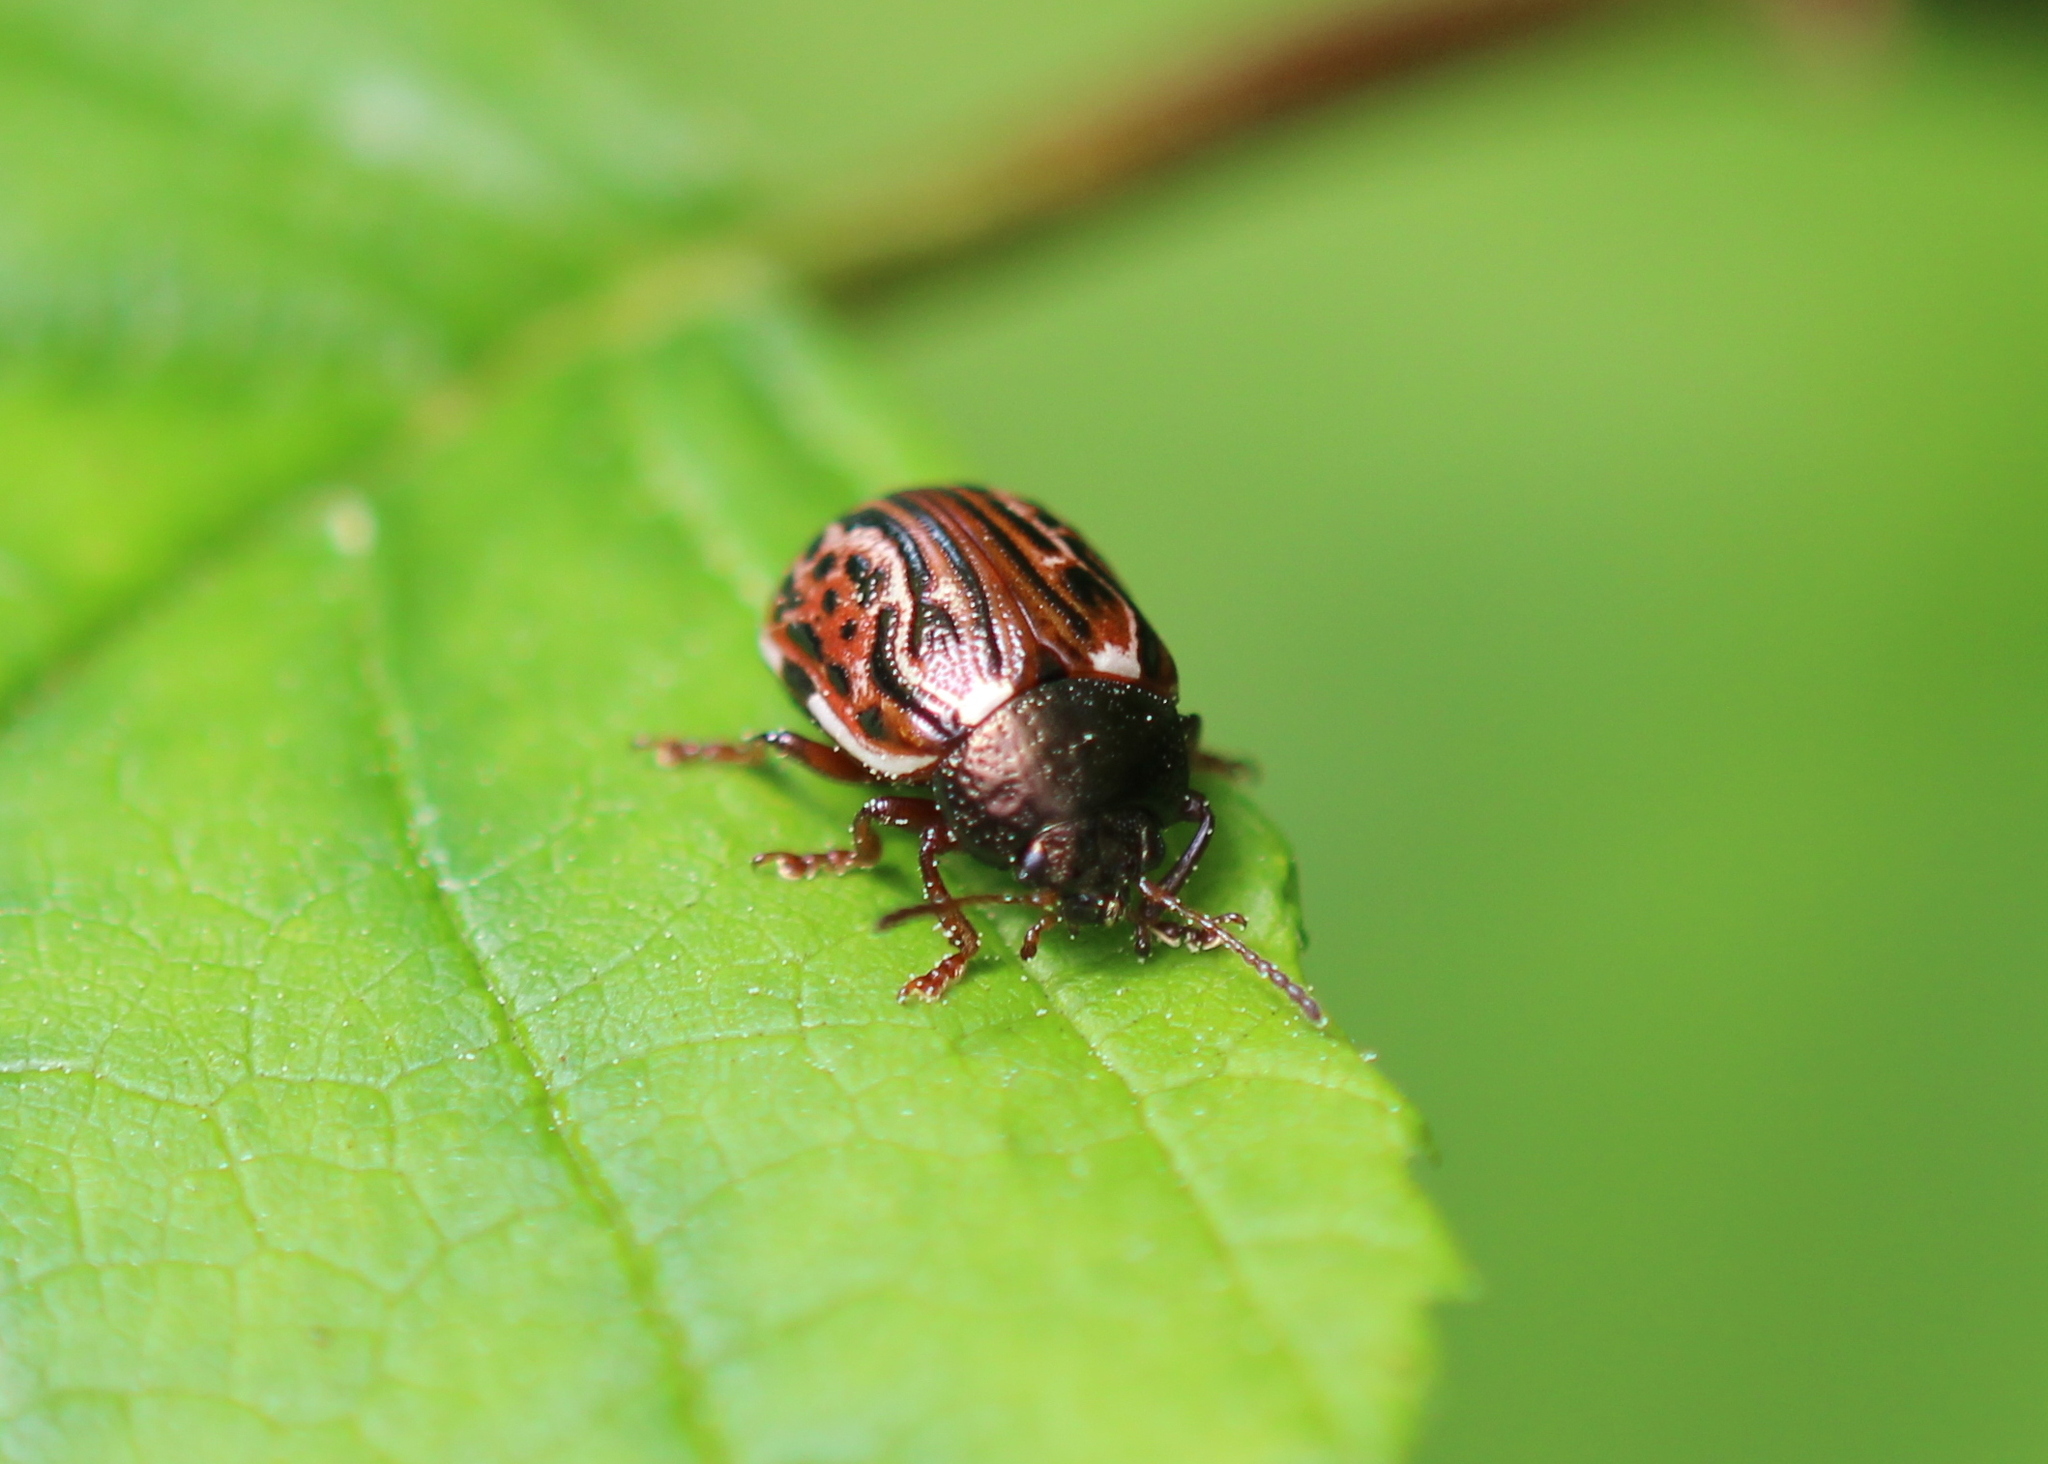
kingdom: Animalia
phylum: Arthropoda
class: Insecta
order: Coleoptera
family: Chrysomelidae
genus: Calligrapha
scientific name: Calligrapha alni
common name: Russet alder leaf beetle
